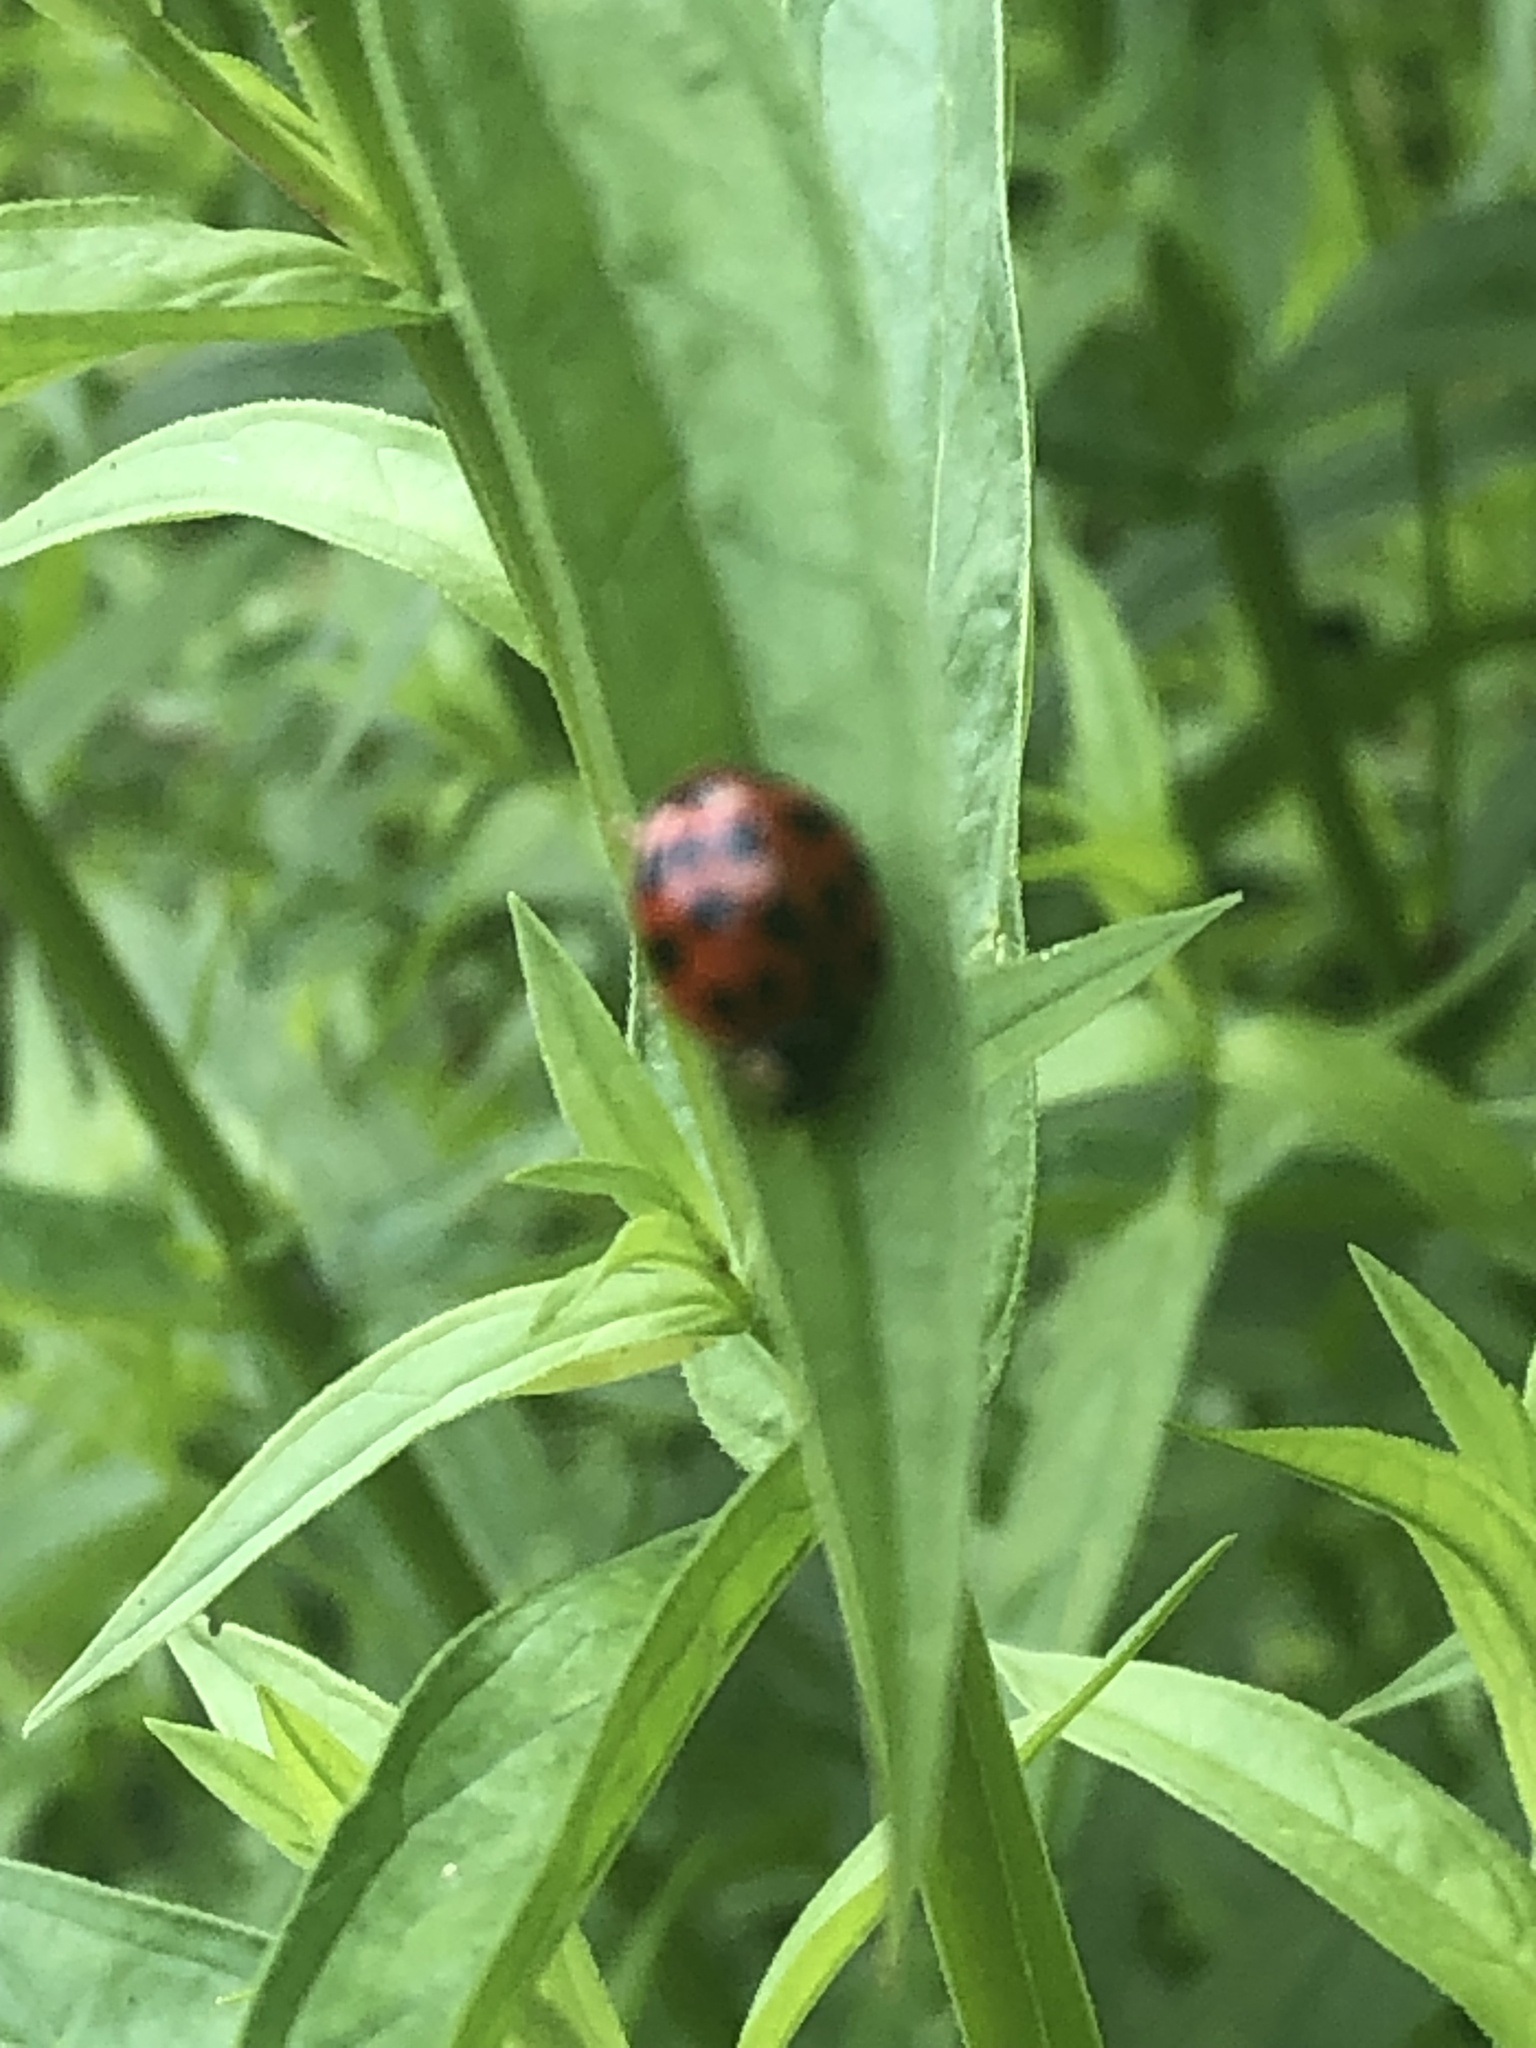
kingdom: Animalia
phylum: Arthropoda
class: Insecta
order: Coleoptera
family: Coccinellidae
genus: Harmonia
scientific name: Harmonia axyridis
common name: Harlequin ladybird
